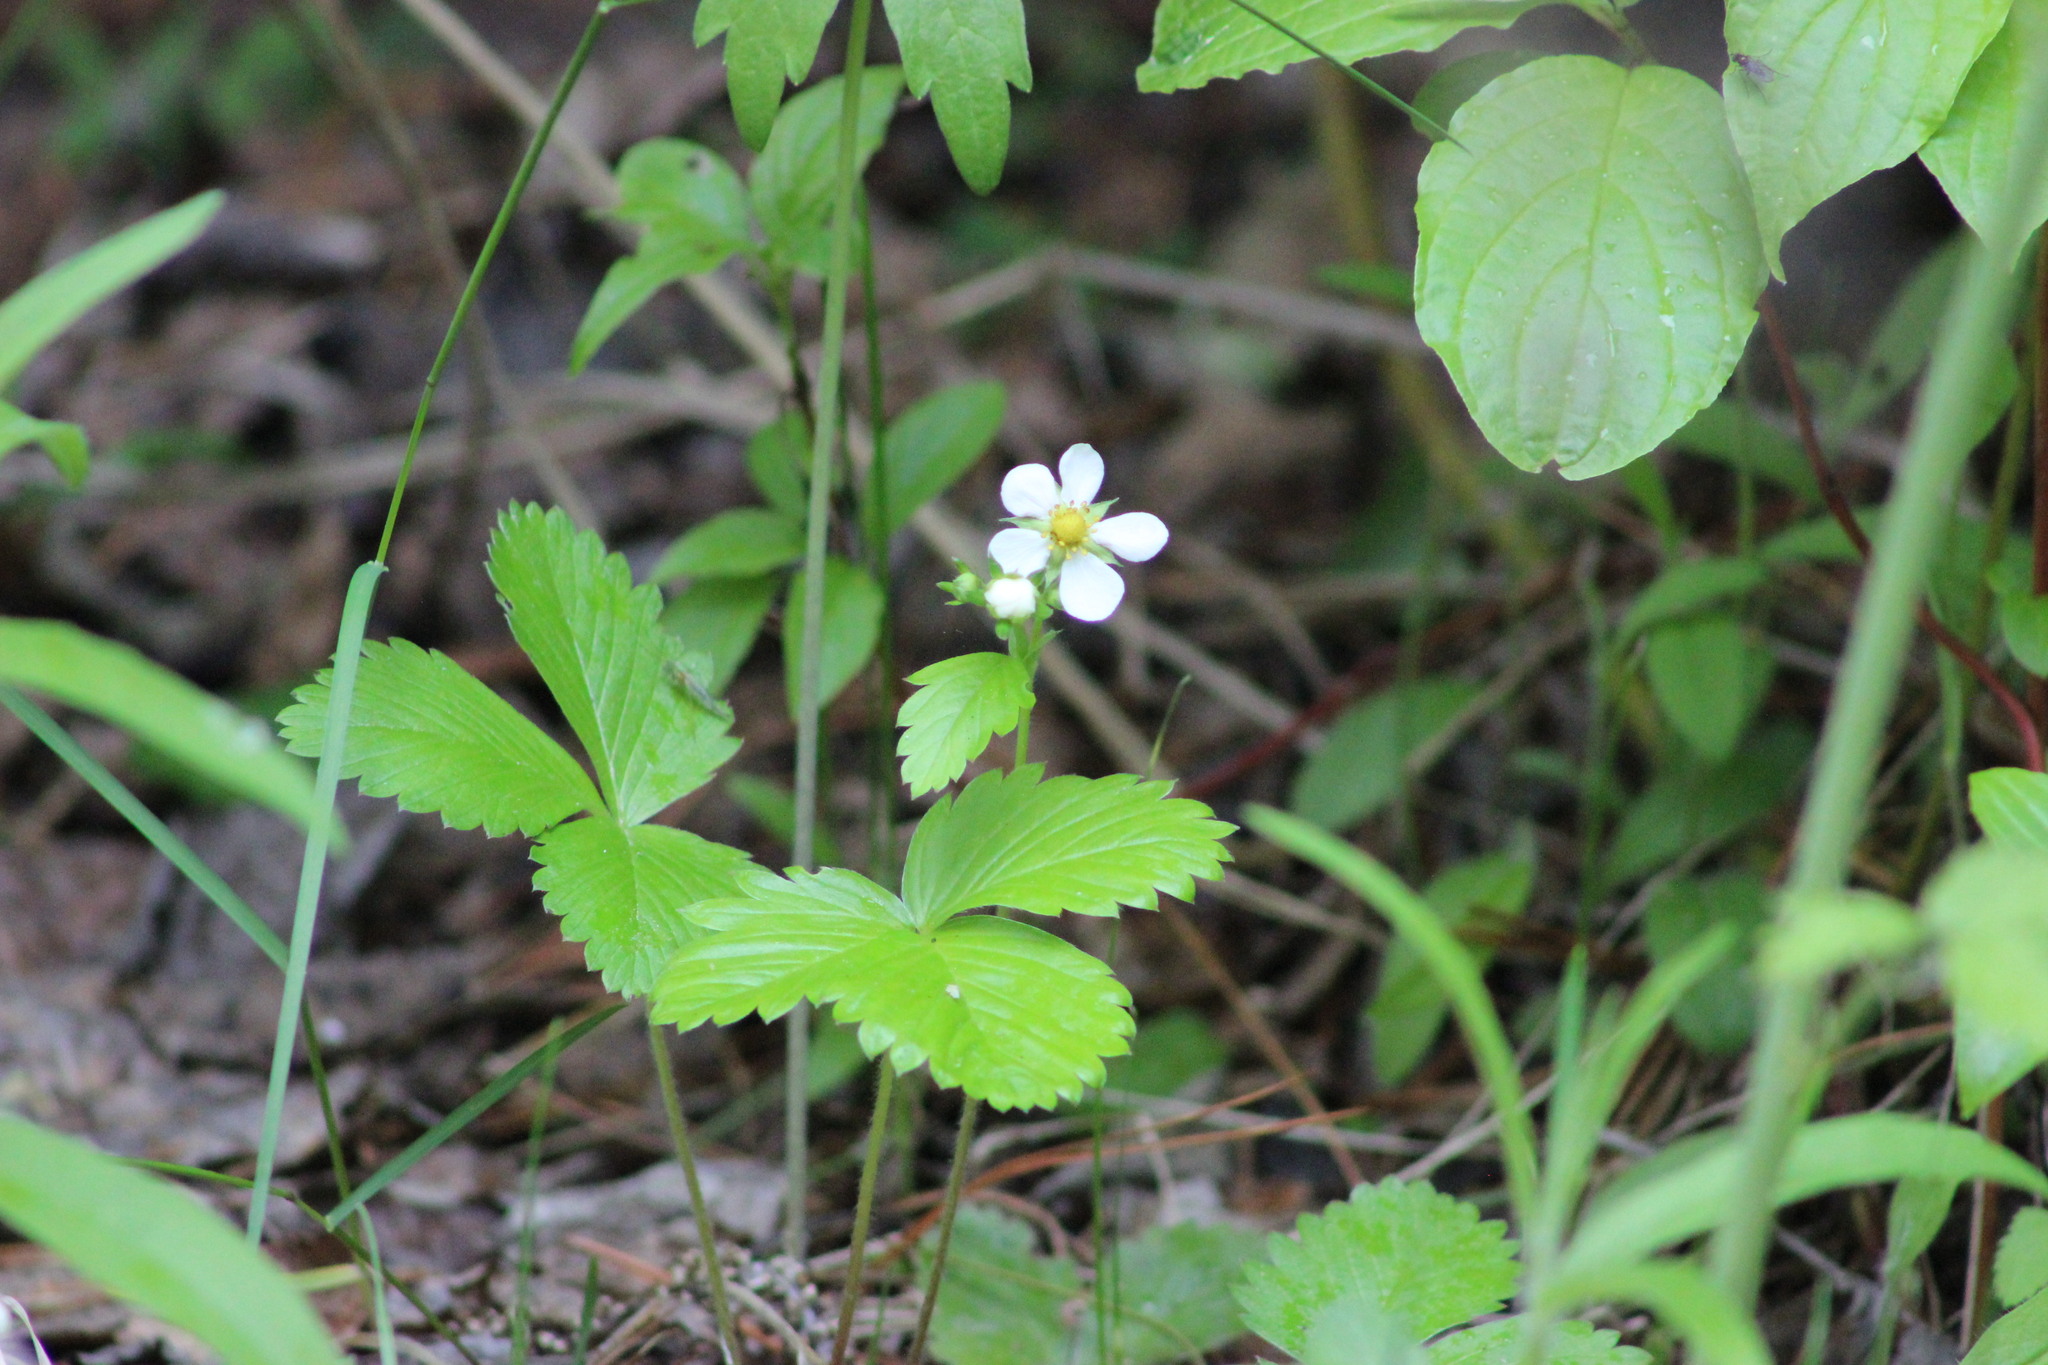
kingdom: Plantae
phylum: Tracheophyta
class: Magnoliopsida
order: Rosales
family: Rosaceae
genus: Fragaria
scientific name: Fragaria vesca
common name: Wild strawberry
